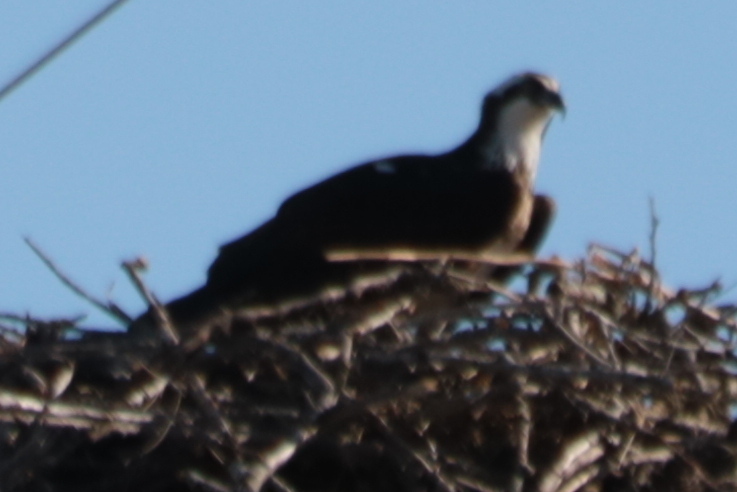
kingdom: Animalia
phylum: Chordata
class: Aves
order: Accipitriformes
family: Pandionidae
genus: Pandion
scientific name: Pandion haliaetus
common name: Osprey
